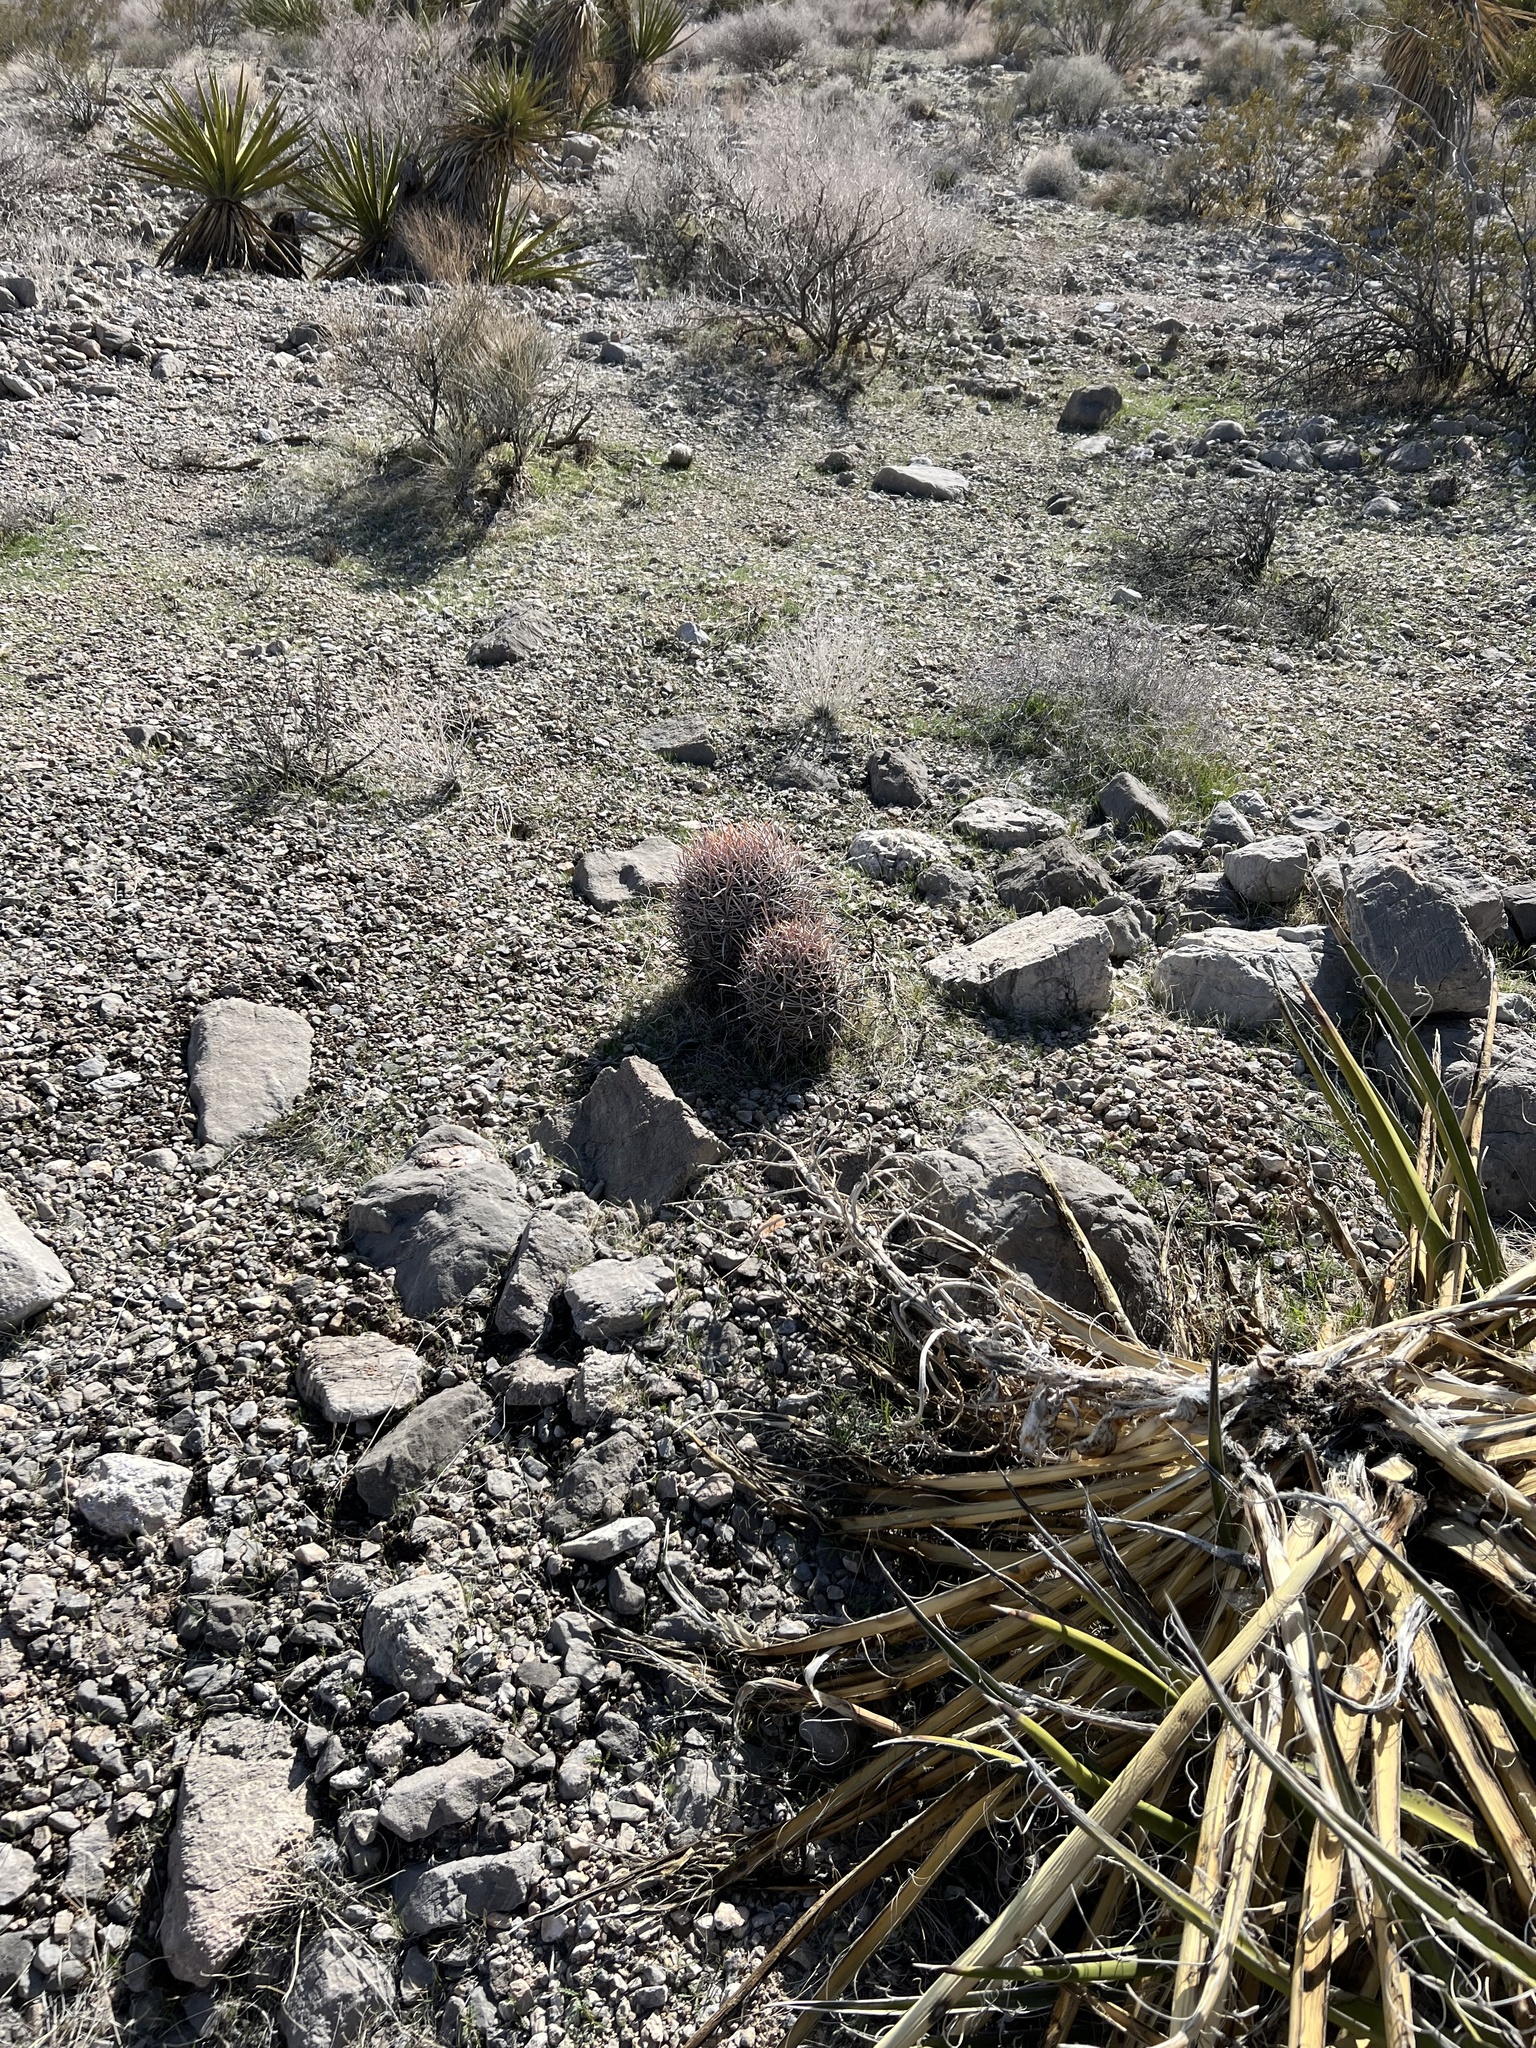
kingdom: Plantae
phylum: Tracheophyta
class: Magnoliopsida
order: Caryophyllales
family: Cactaceae
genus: Echinocactus
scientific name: Echinocactus polycephalus
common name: Cottontop cactus
